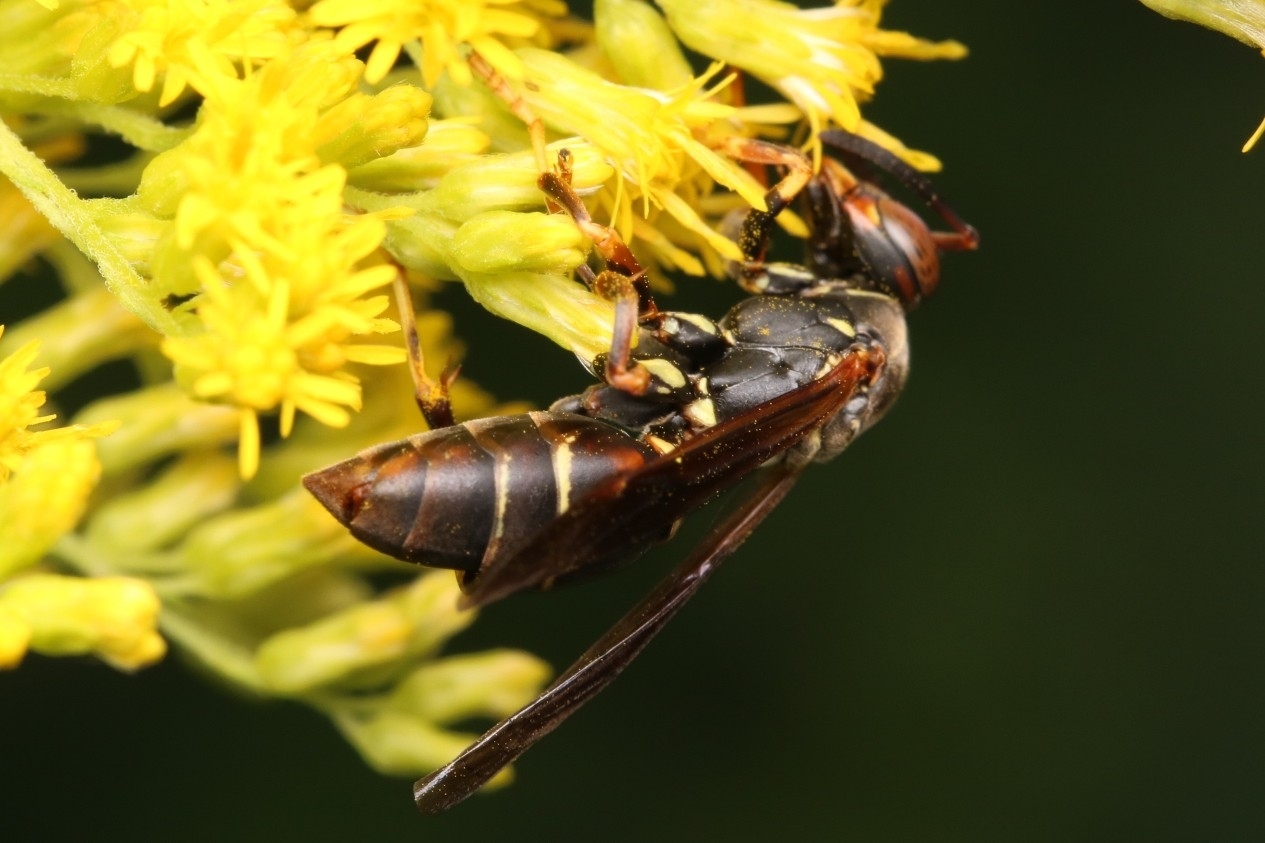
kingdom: Animalia
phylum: Arthropoda
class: Insecta
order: Strepsiptera
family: Xenidae
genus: Xenos
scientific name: Xenos pecki
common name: Twisted wing parasite
